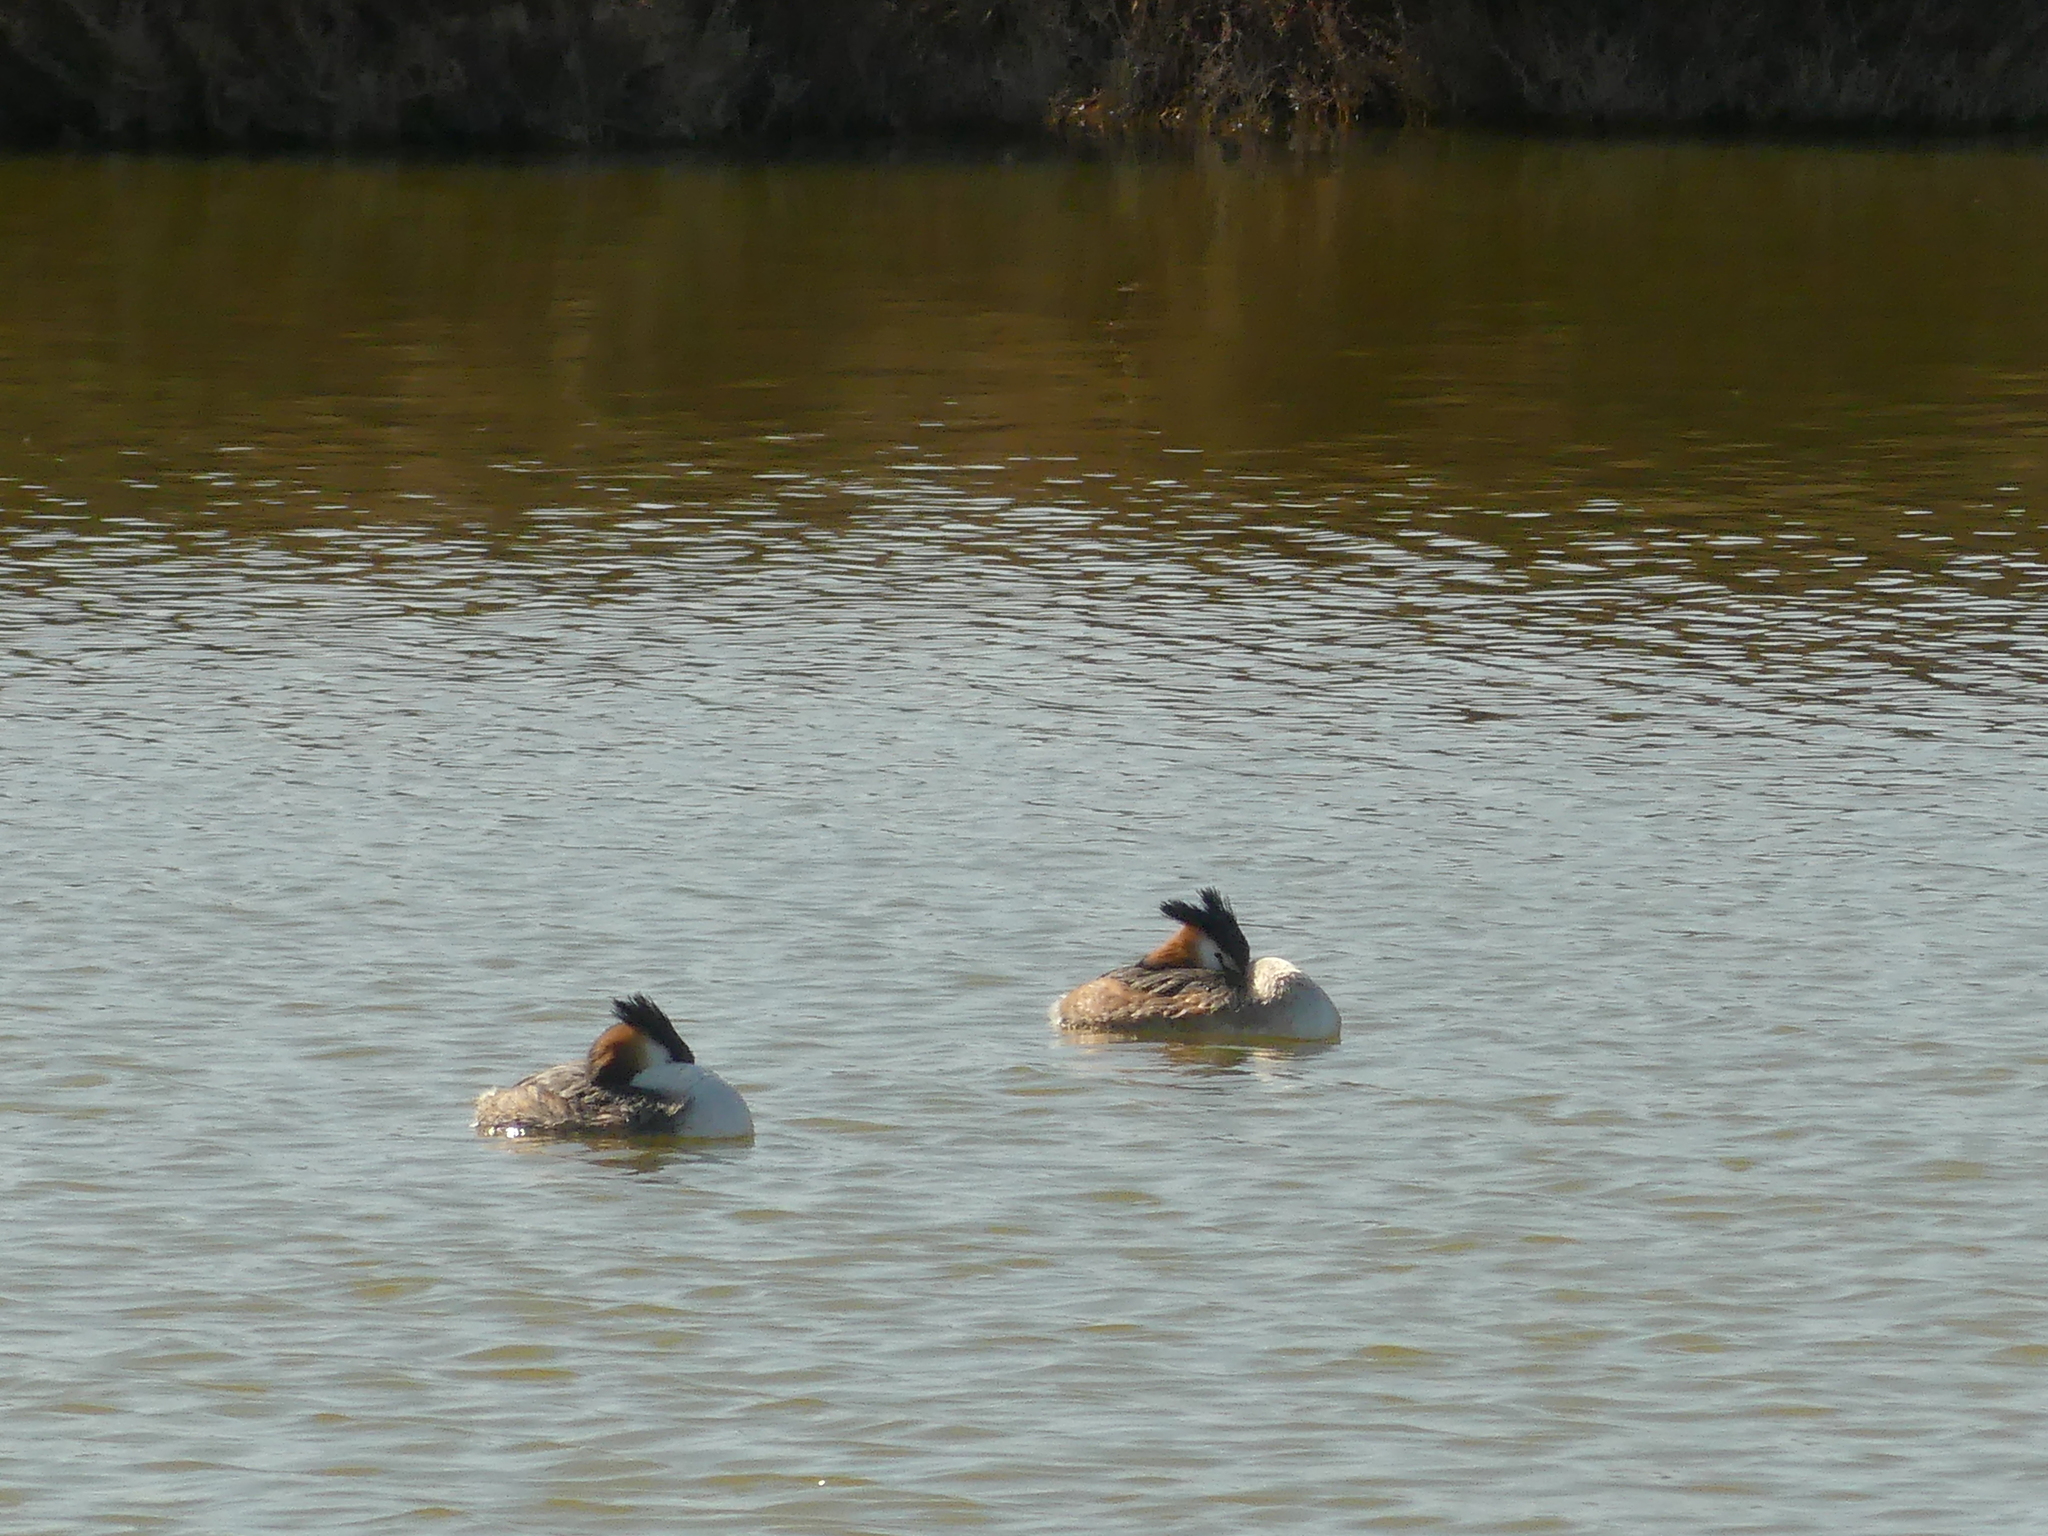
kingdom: Animalia
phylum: Chordata
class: Aves
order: Podicipediformes
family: Podicipedidae
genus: Podiceps
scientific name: Podiceps cristatus
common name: Great crested grebe
